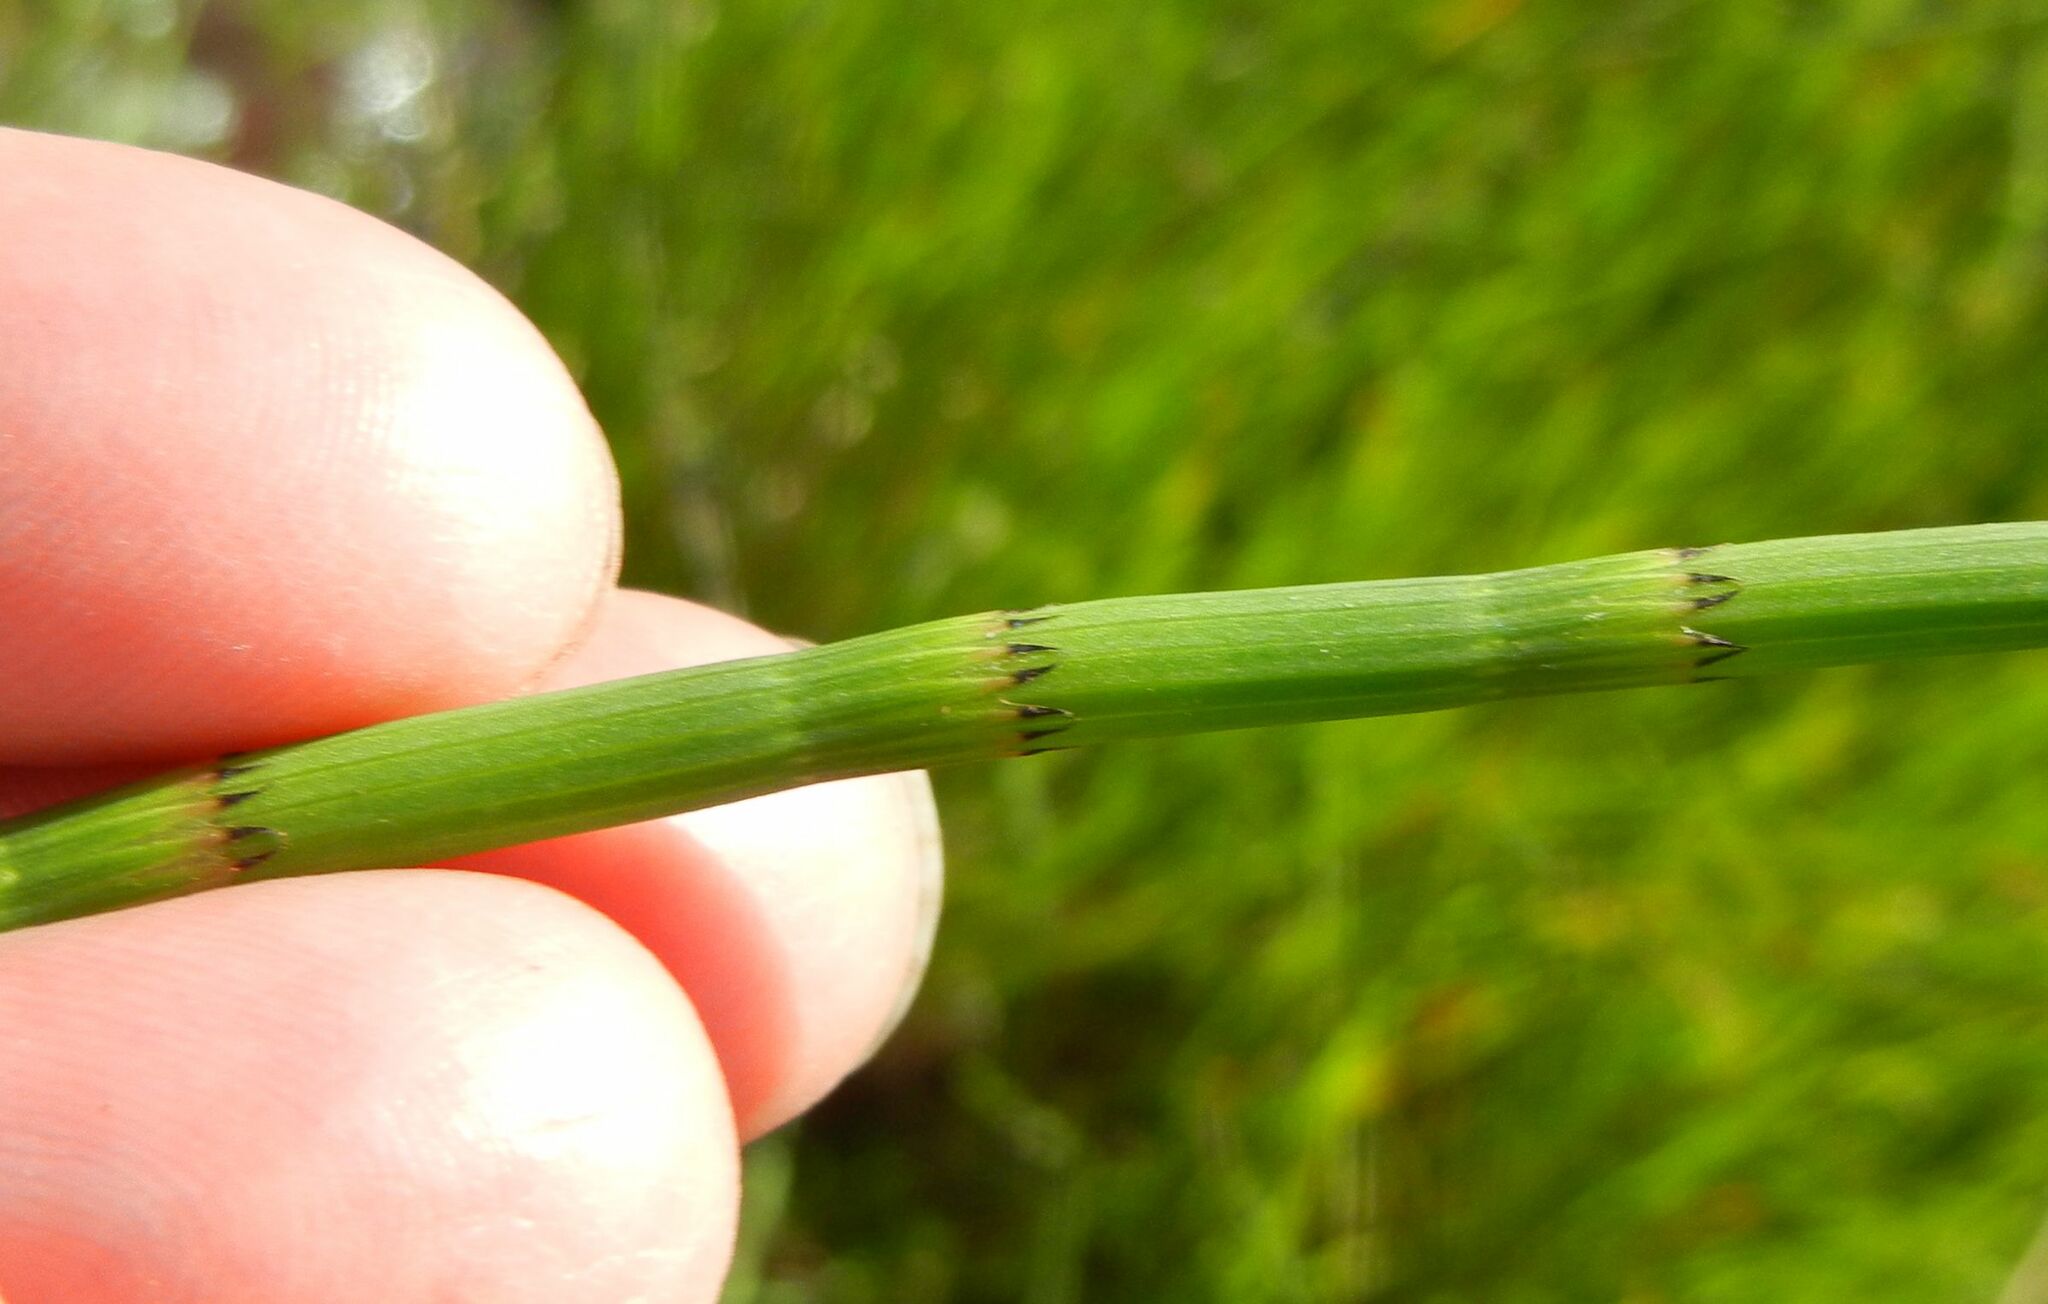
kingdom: Plantae
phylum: Tracheophyta
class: Polypodiopsida
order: Equisetales
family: Equisetaceae
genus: Equisetum
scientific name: Equisetum fluviatile
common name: Water horsetail
